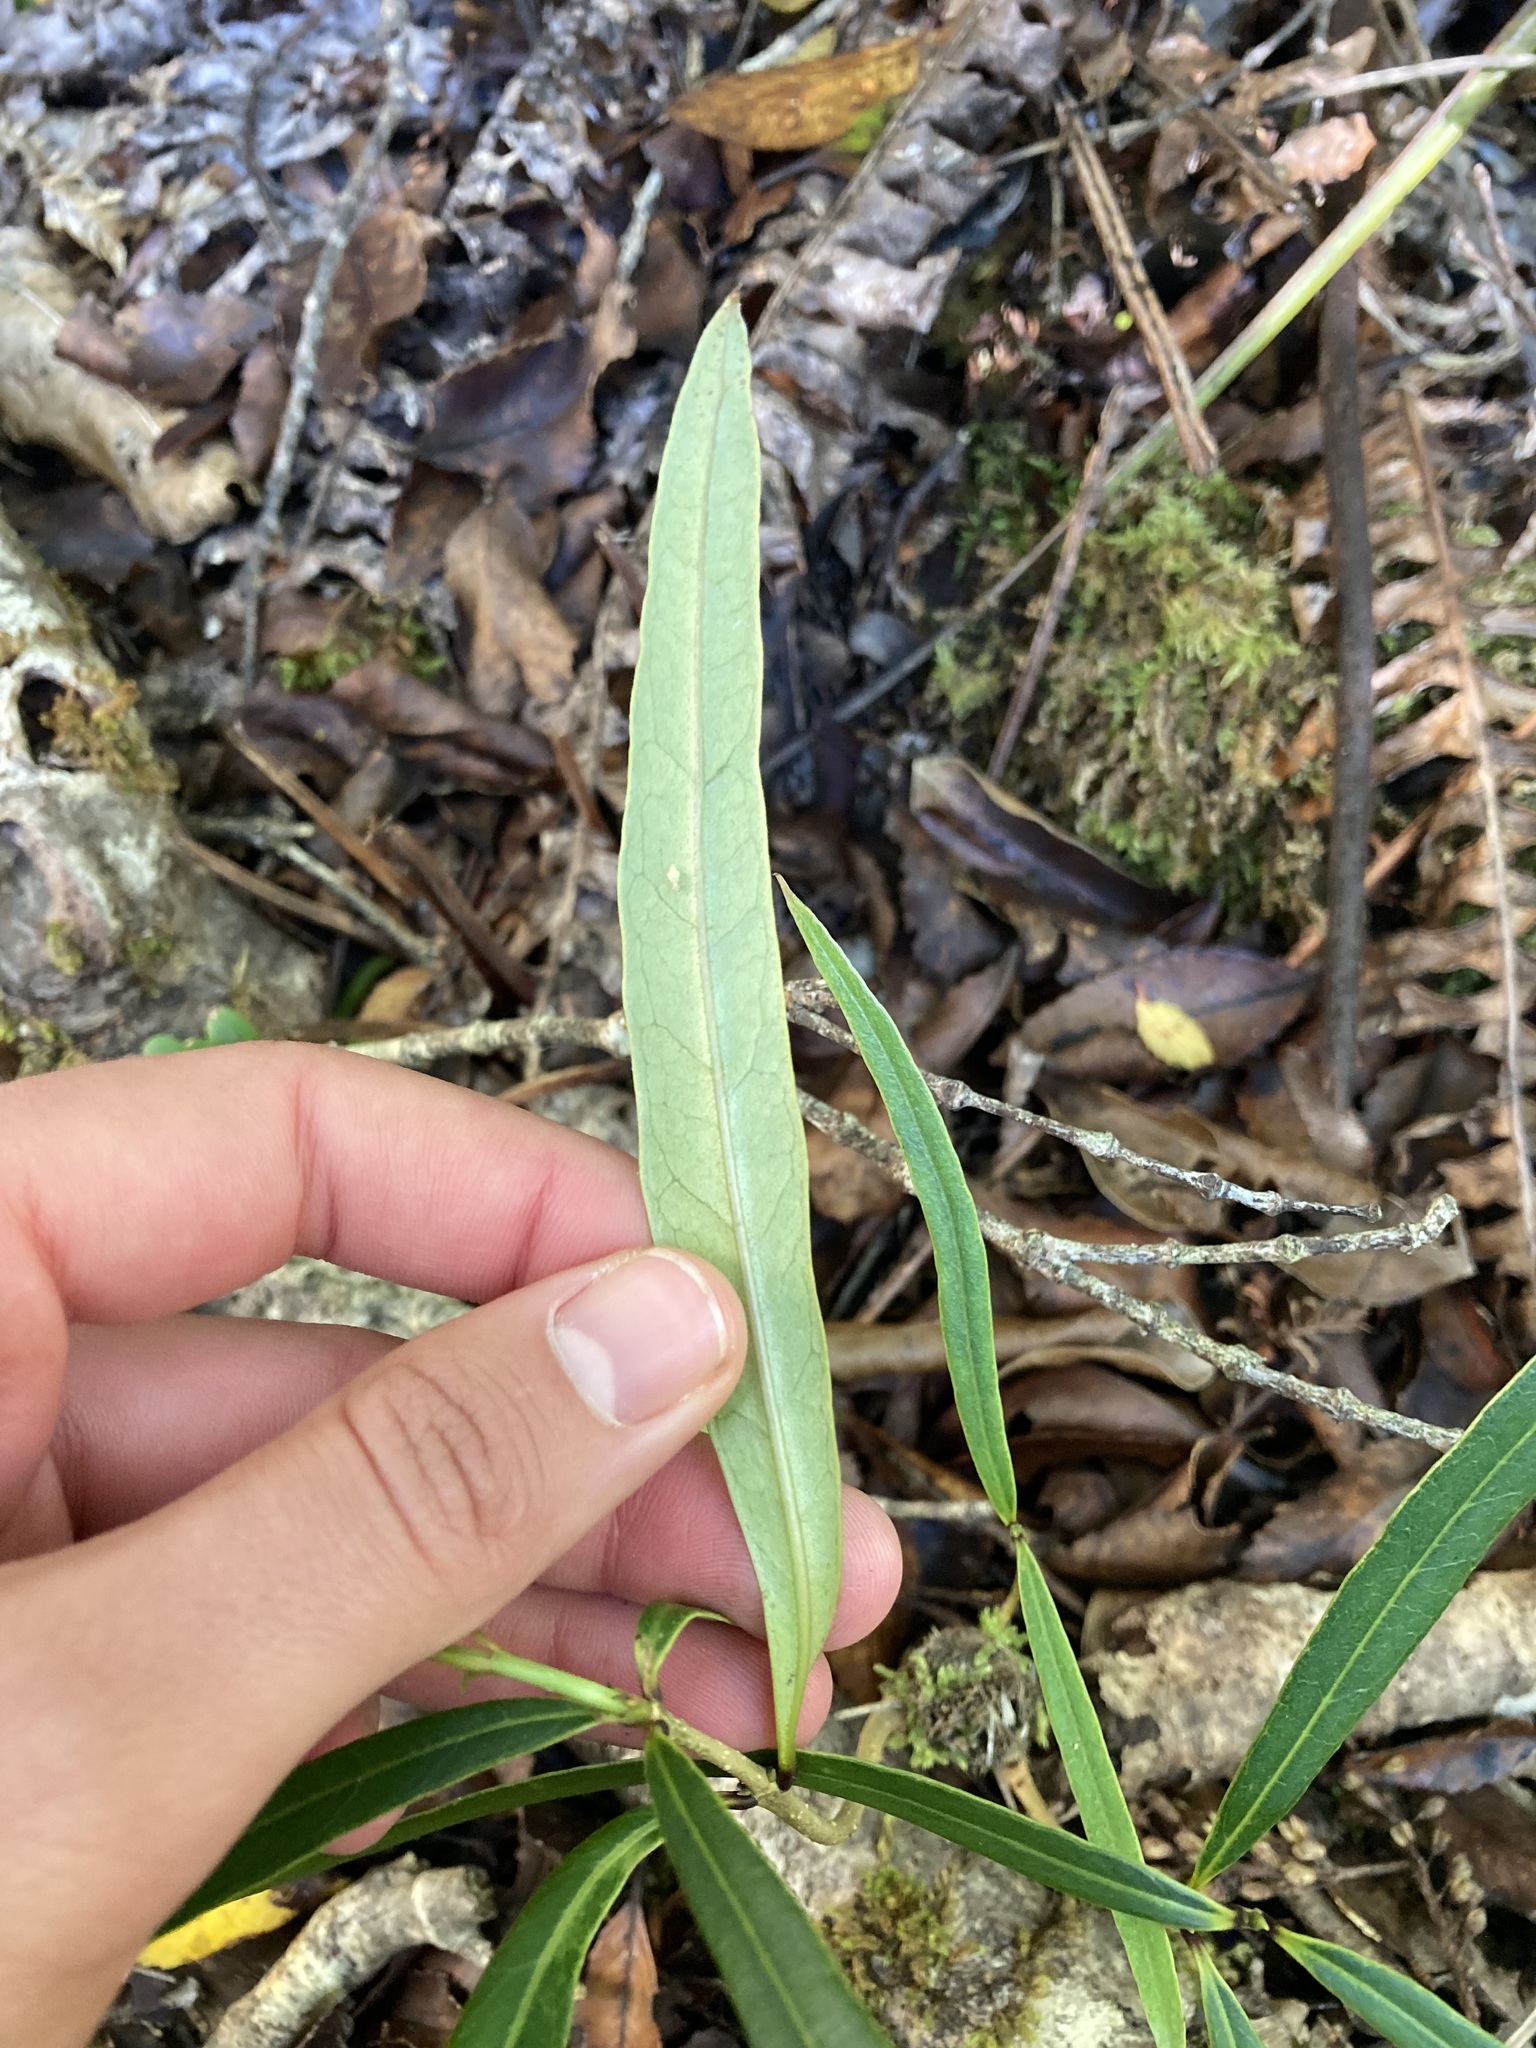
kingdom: Plantae
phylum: Tracheophyta
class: Magnoliopsida
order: Lamiales
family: Oleaceae
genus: Nestegis
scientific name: Nestegis cunninghamii
